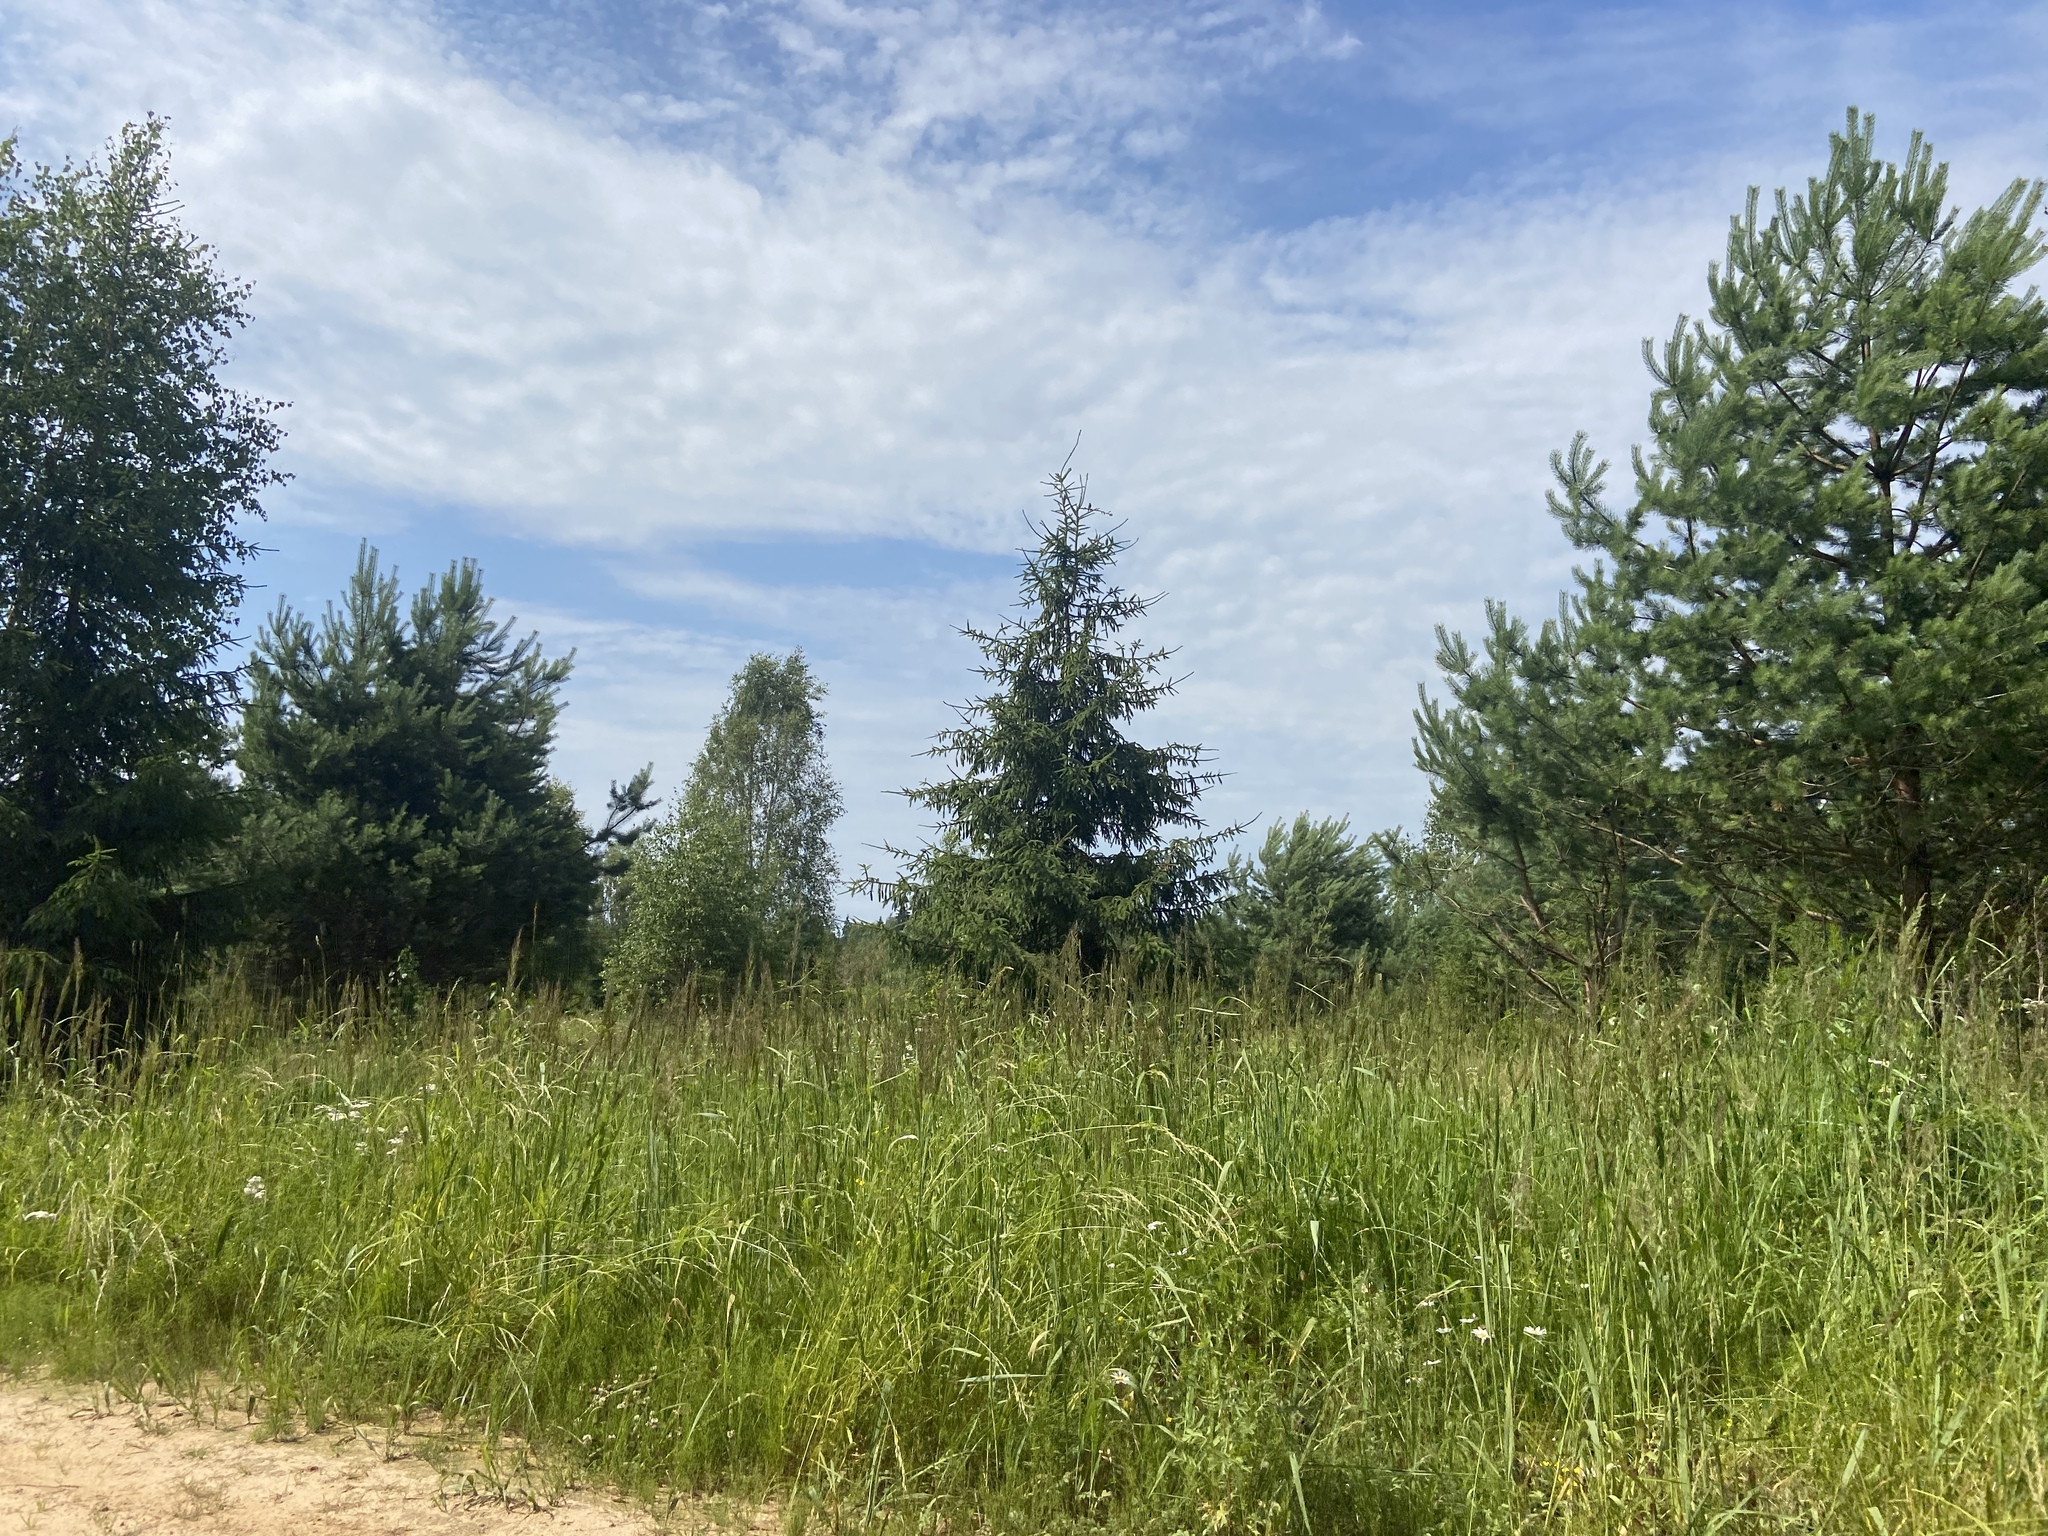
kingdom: Plantae
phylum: Tracheophyta
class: Liliopsida
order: Poales
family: Poaceae
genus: Calamagrostis
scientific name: Calamagrostis epigejos
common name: Wood small-reed
